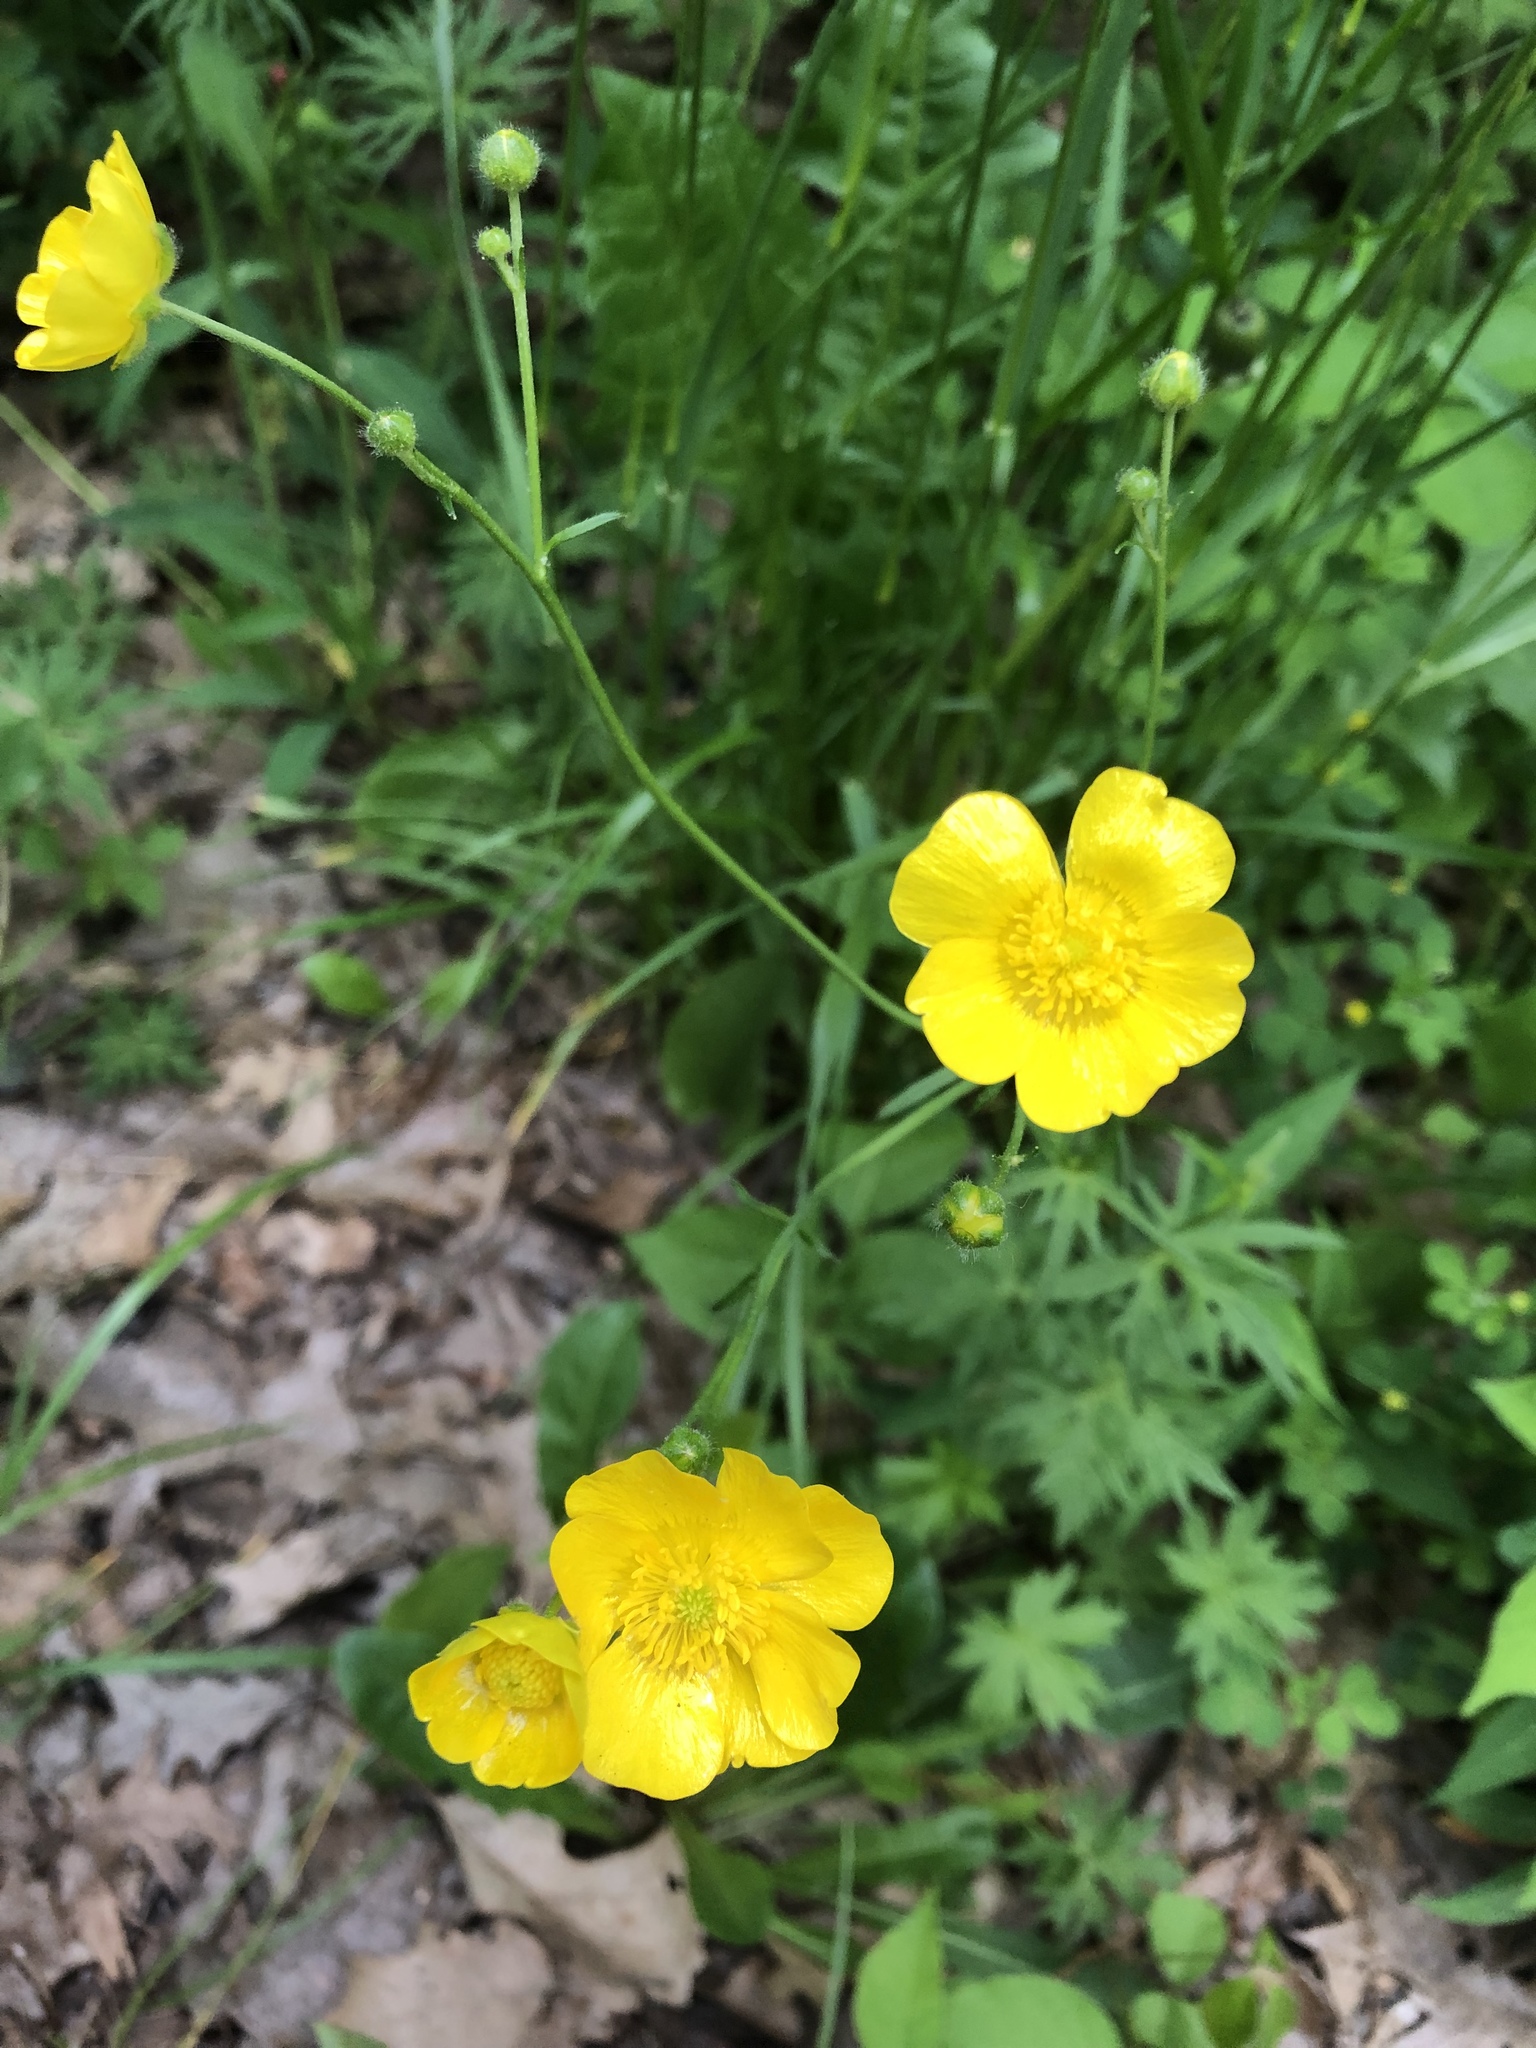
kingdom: Plantae
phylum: Tracheophyta
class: Magnoliopsida
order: Ranunculales
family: Ranunculaceae
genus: Ranunculus
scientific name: Ranunculus acris
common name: Meadow buttercup
